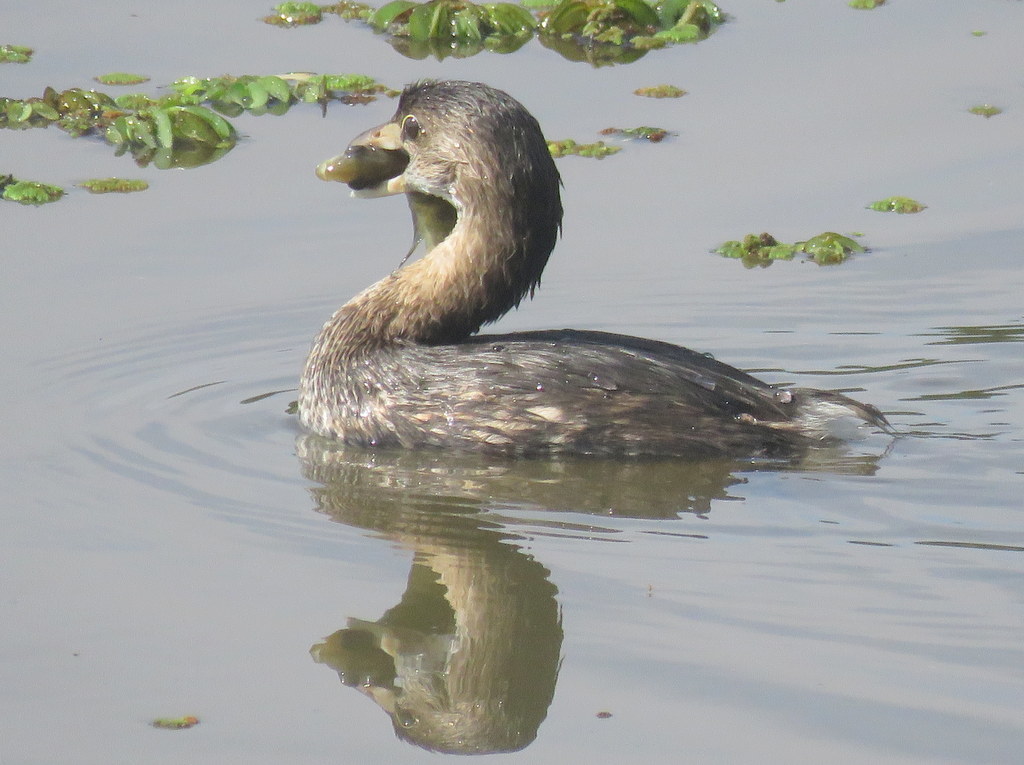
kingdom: Animalia
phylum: Chordata
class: Aves
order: Podicipediformes
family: Podicipedidae
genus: Podilymbus
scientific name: Podilymbus podiceps
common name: Pied-billed grebe
